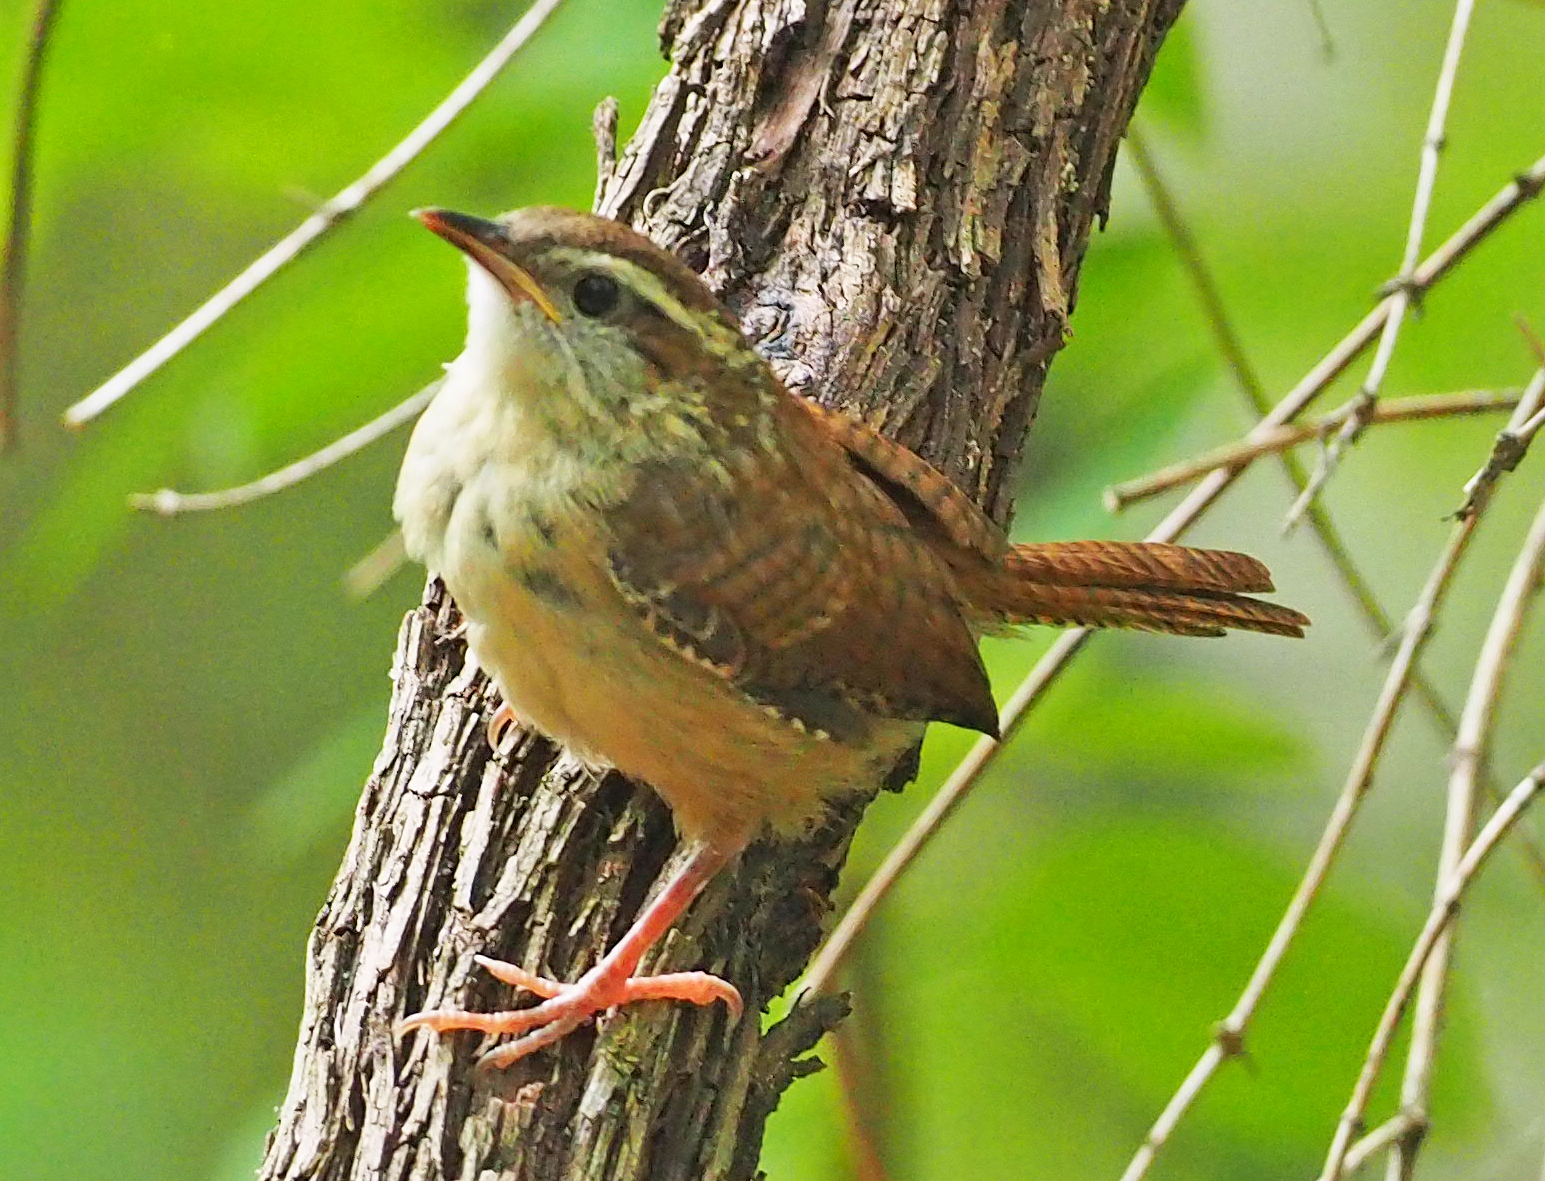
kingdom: Animalia
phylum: Chordata
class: Aves
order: Passeriformes
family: Troglodytidae
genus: Thryothorus
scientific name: Thryothorus ludovicianus
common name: Carolina wren
